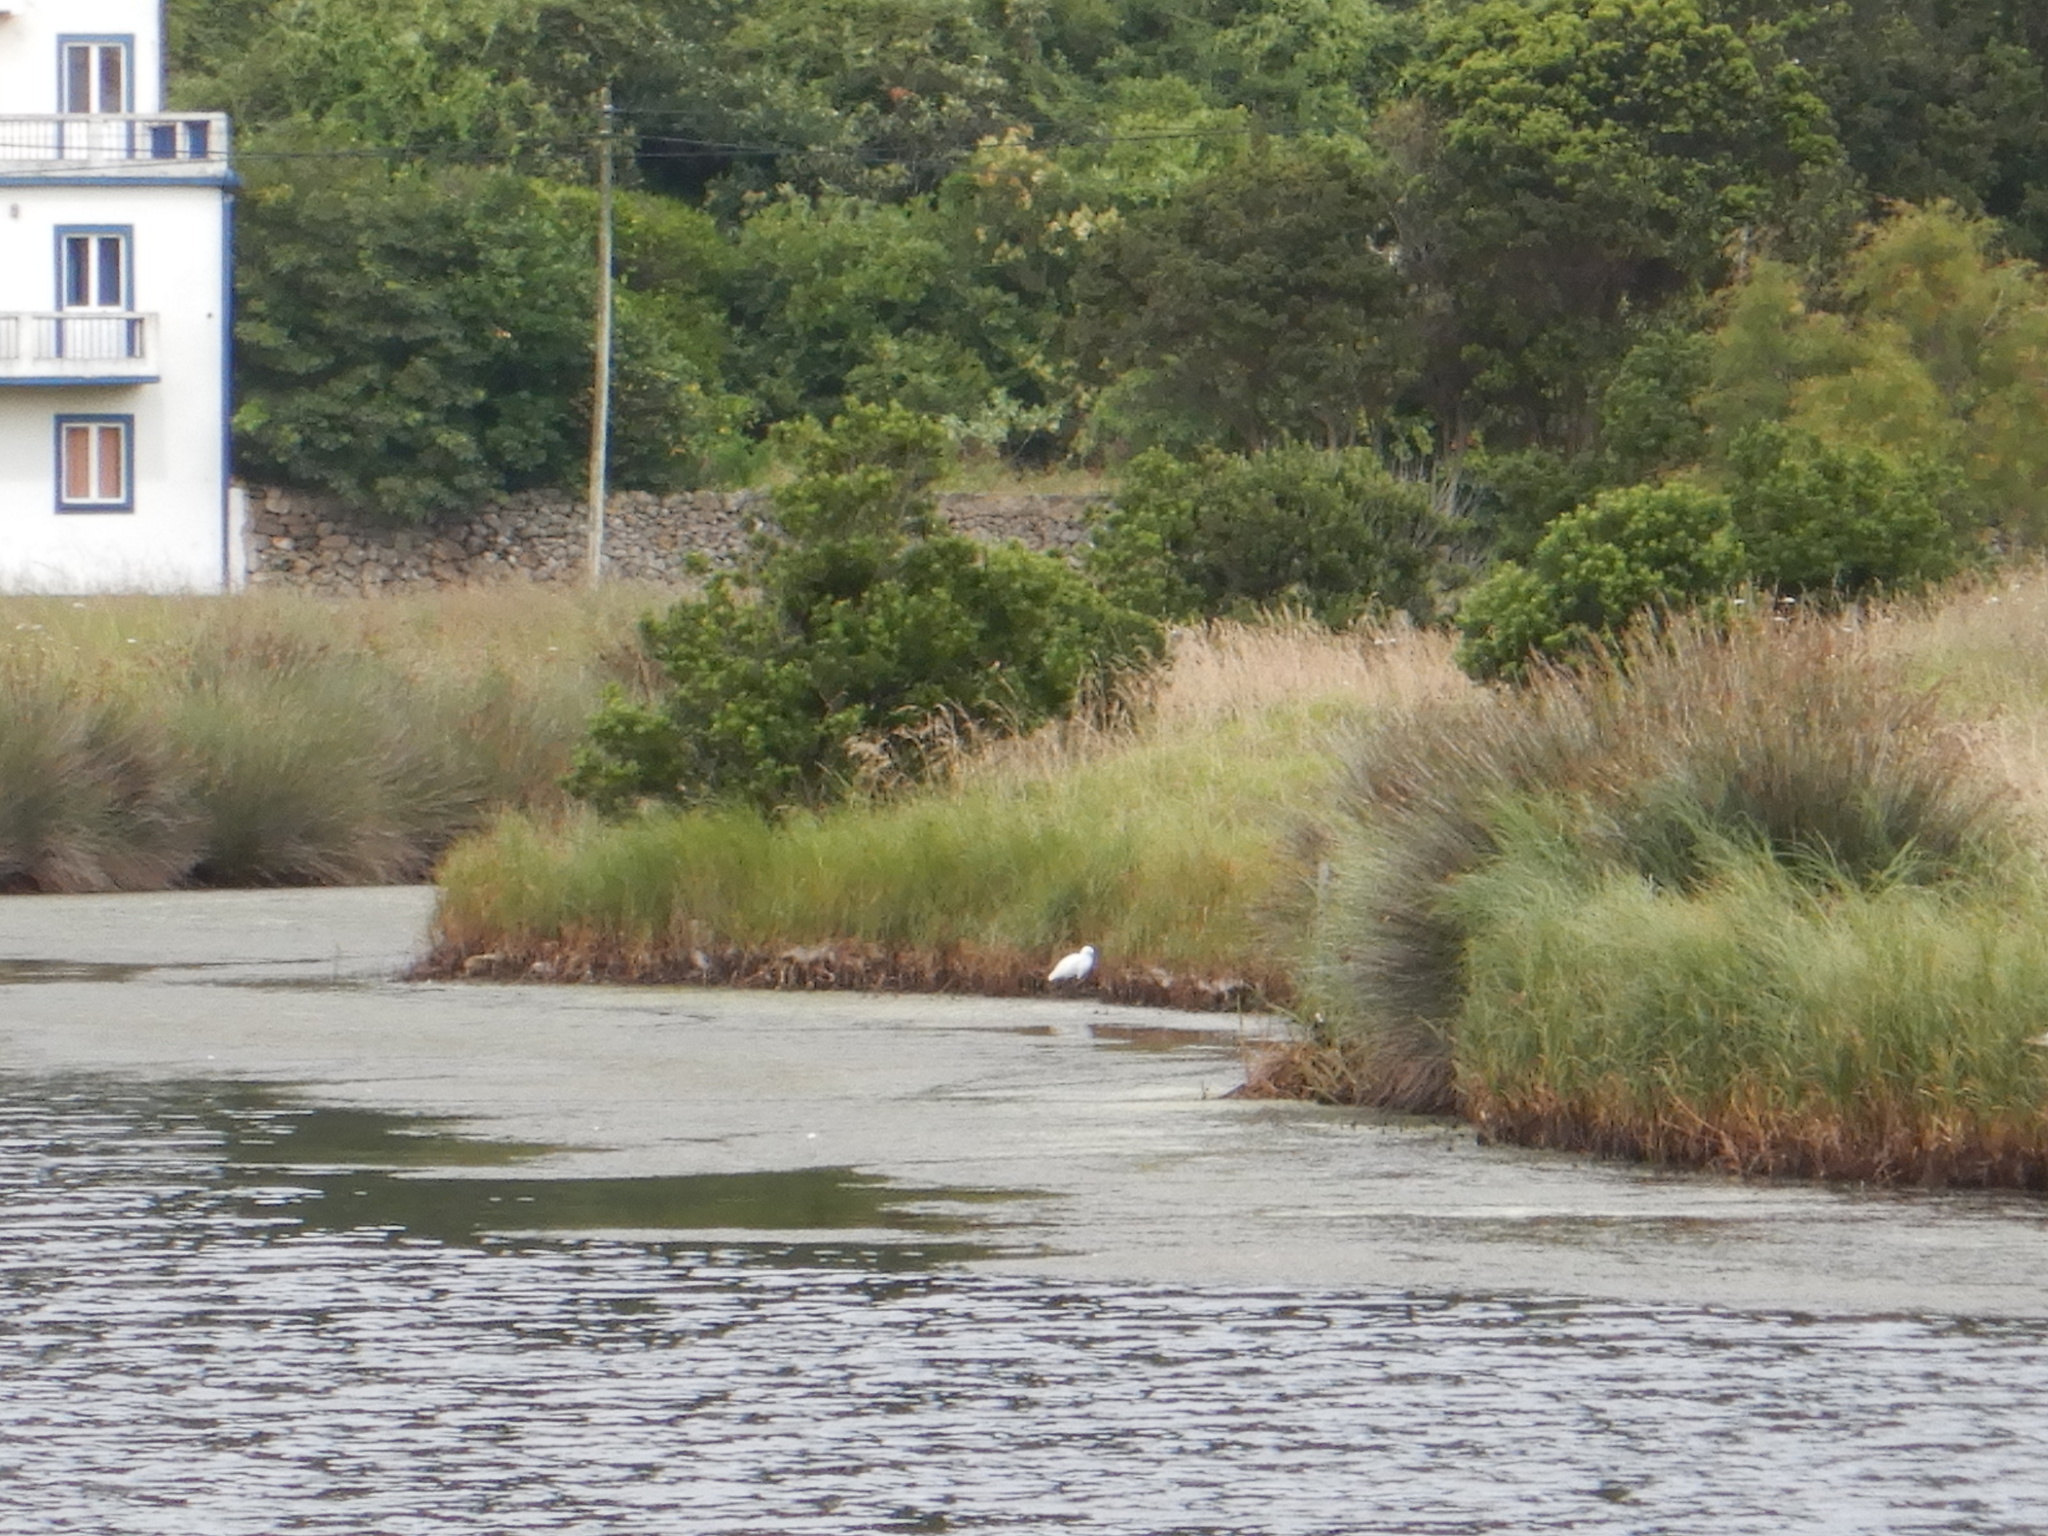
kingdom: Animalia
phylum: Chordata
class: Aves
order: Pelecaniformes
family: Ardeidae
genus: Egretta
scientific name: Egretta garzetta
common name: Little egret
